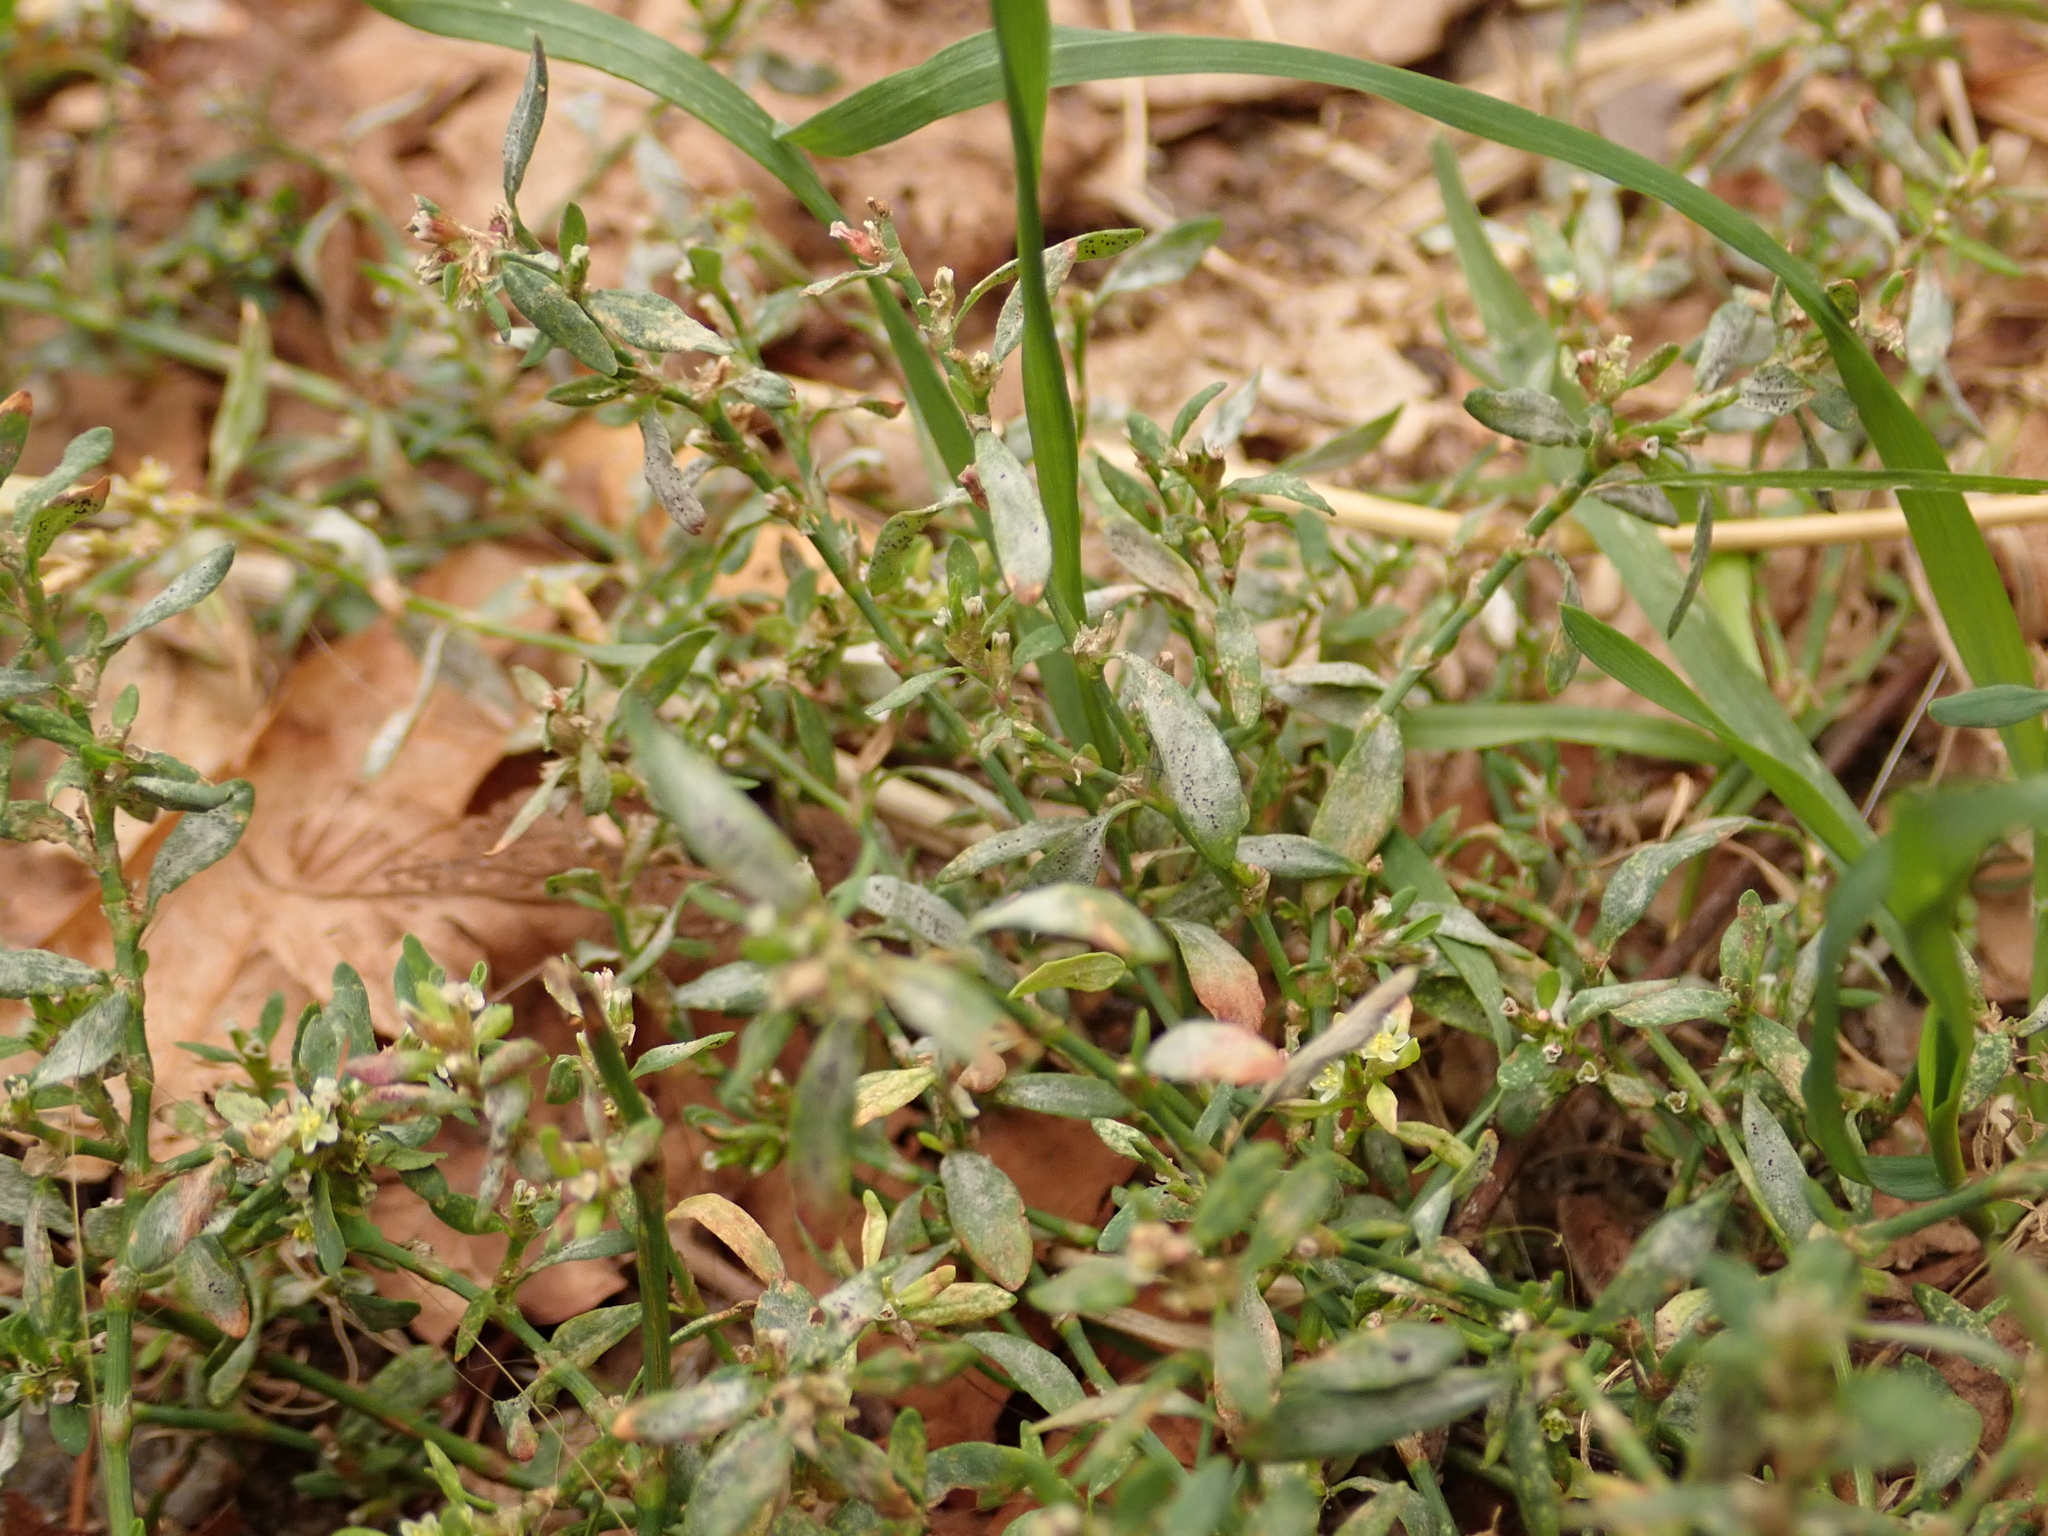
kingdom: Plantae
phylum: Tracheophyta
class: Magnoliopsida
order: Caryophyllales
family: Polygonaceae
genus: Polygonum
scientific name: Polygonum aviculare
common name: Prostrate knotweed
